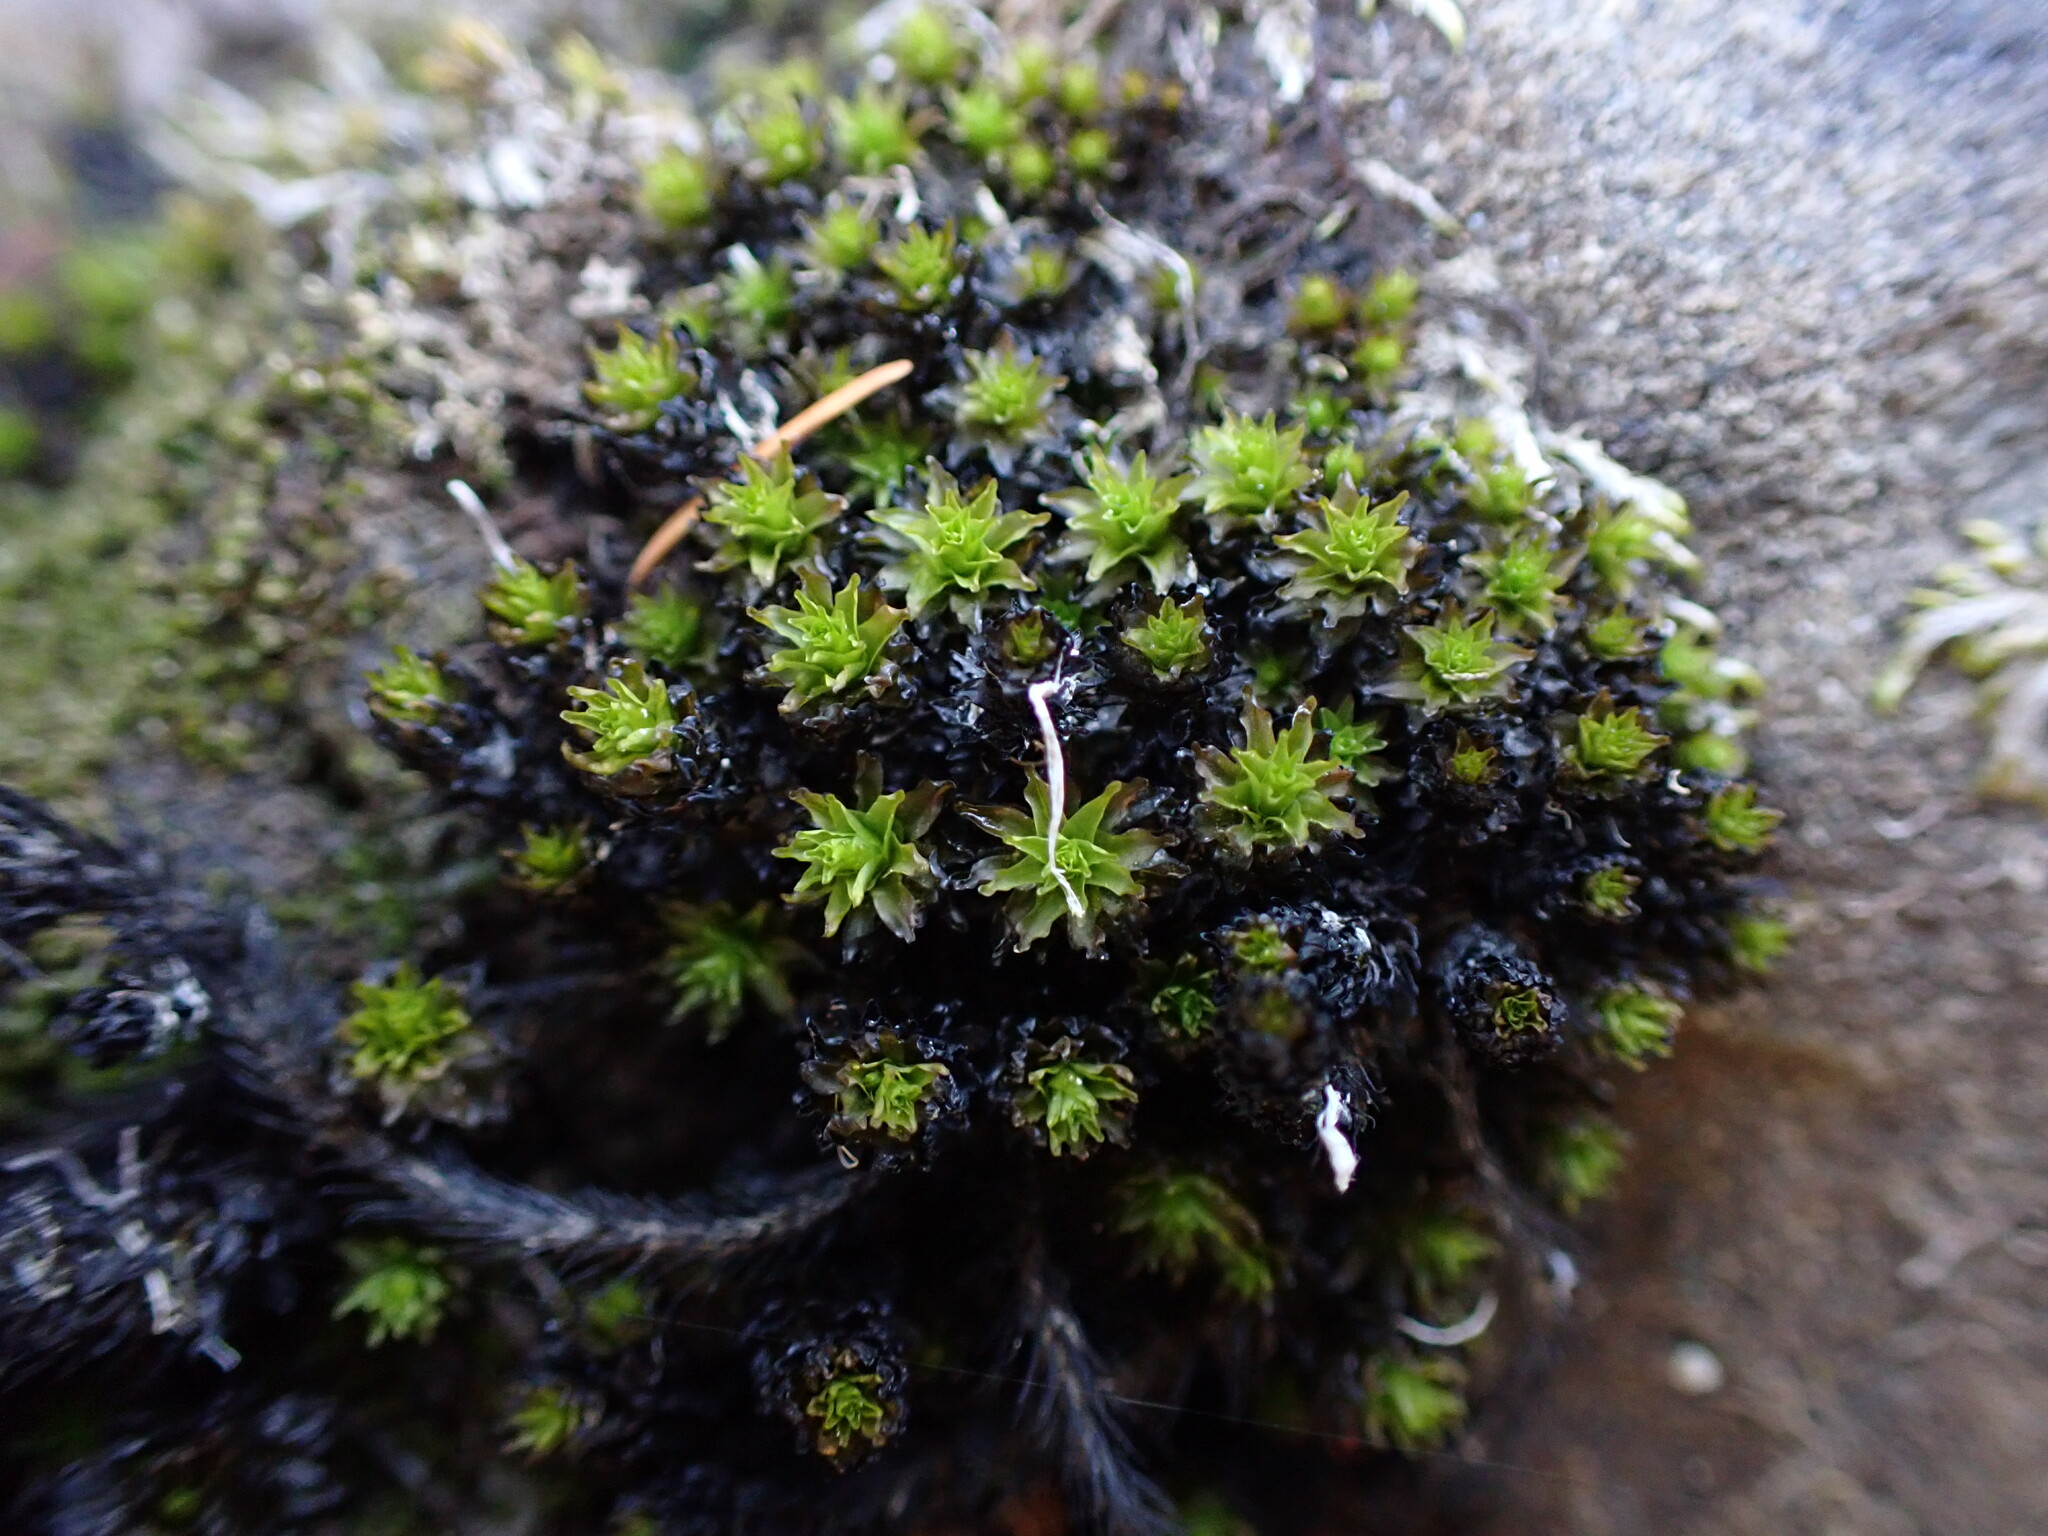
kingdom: Plantae
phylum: Bryophyta
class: Bryopsida
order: Scouleriales
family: Scouleriaceae
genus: Scouleria
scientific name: Scouleria aquatica
